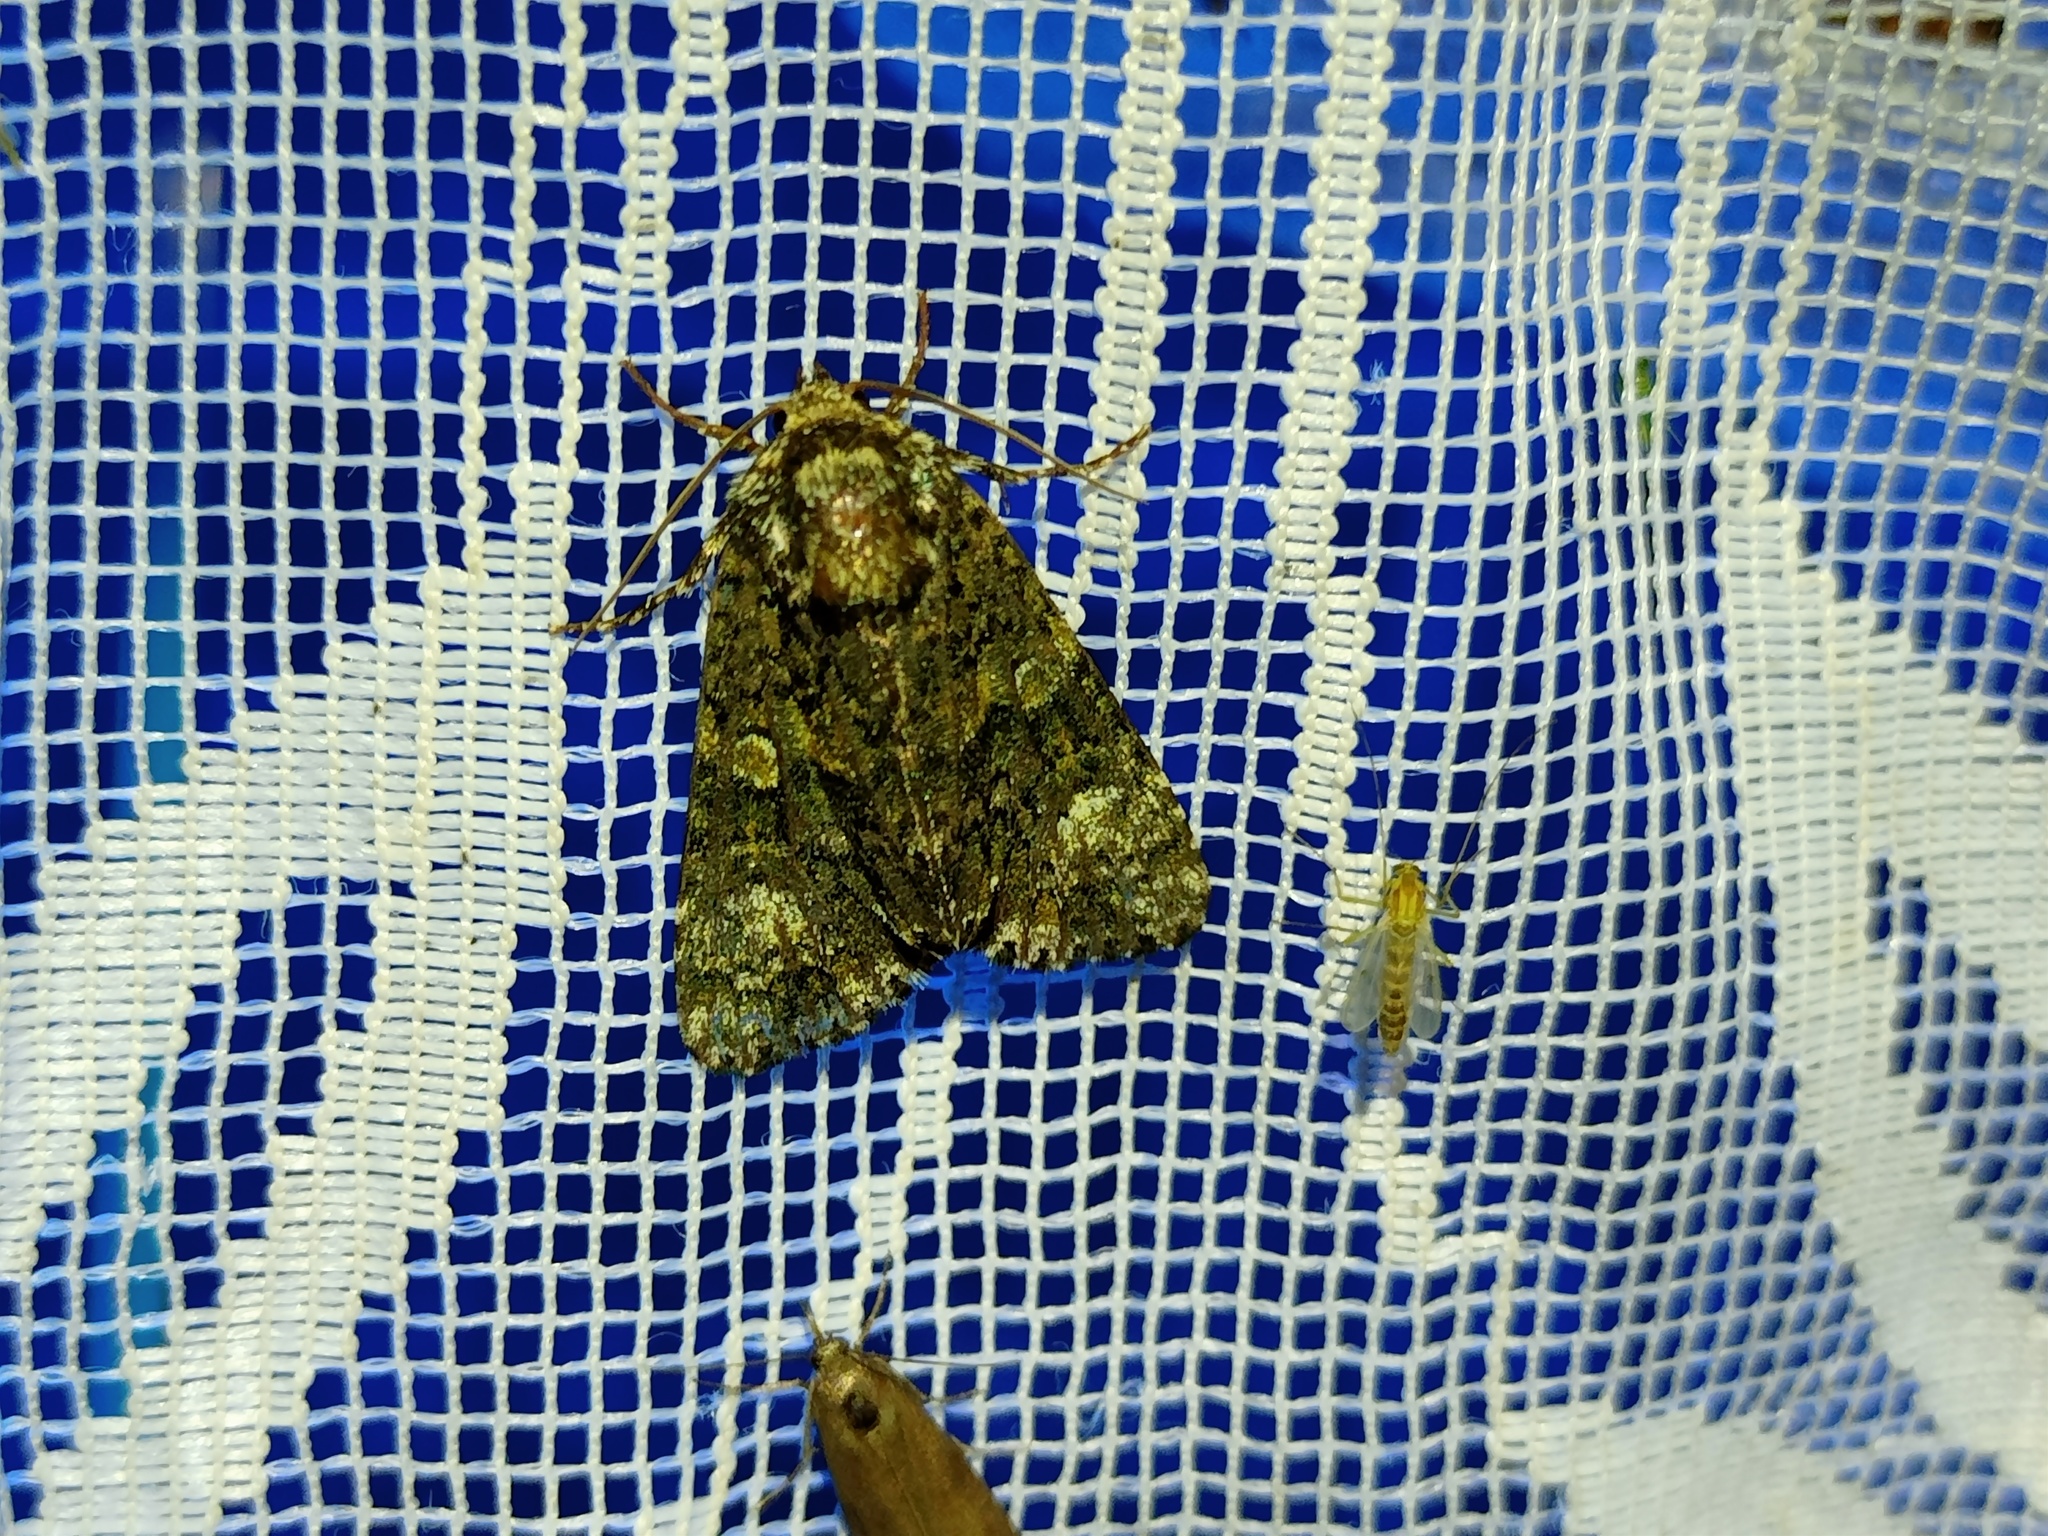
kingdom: Animalia
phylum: Arthropoda
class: Insecta
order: Lepidoptera
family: Noctuidae
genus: Craniophora
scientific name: Craniophora ligustri
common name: Coronet
